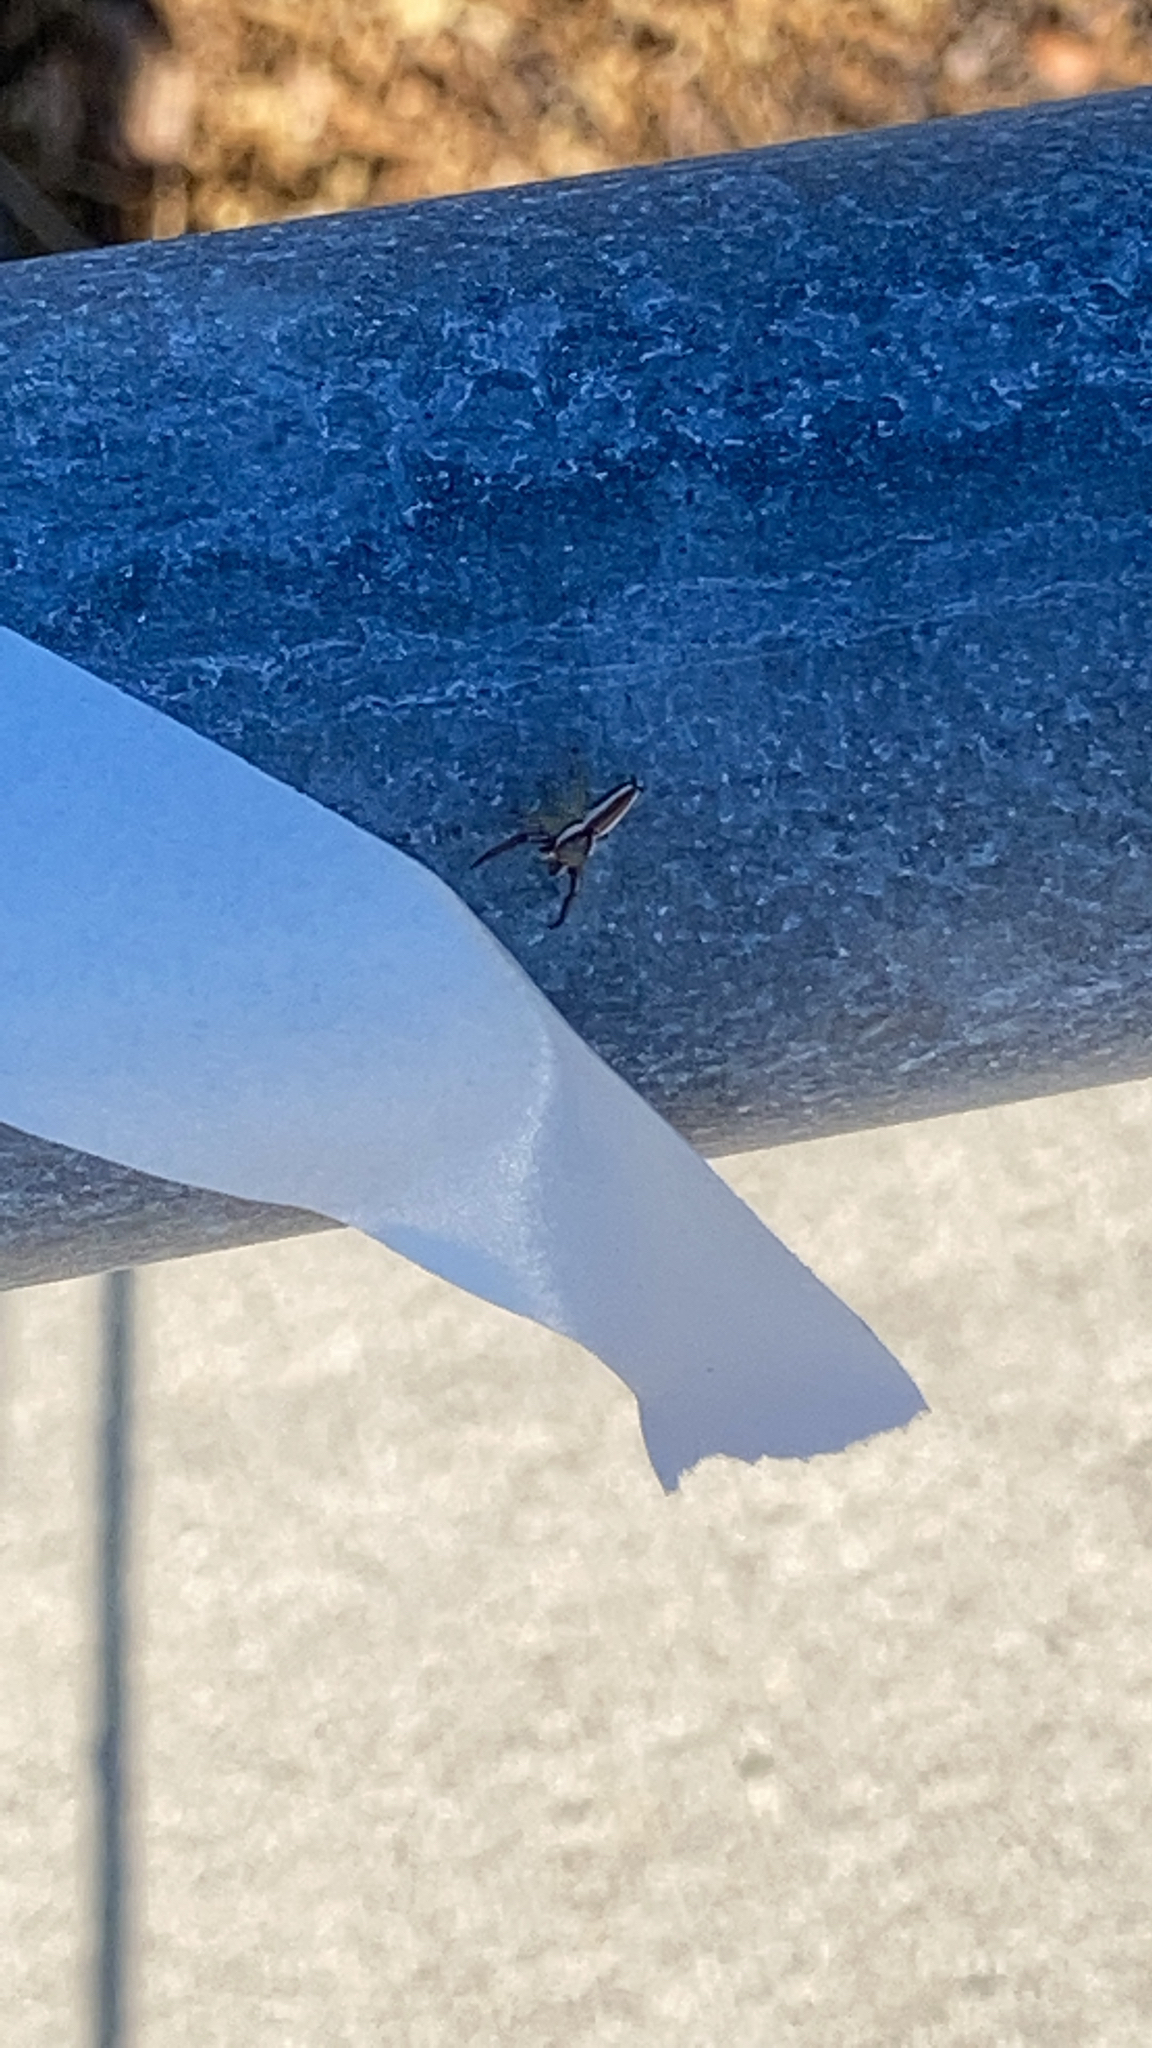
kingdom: Animalia
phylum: Arthropoda
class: Arachnida
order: Araneae
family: Salticidae
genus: Hentzia
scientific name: Hentzia palmarum
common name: Common hentz jumping spider
